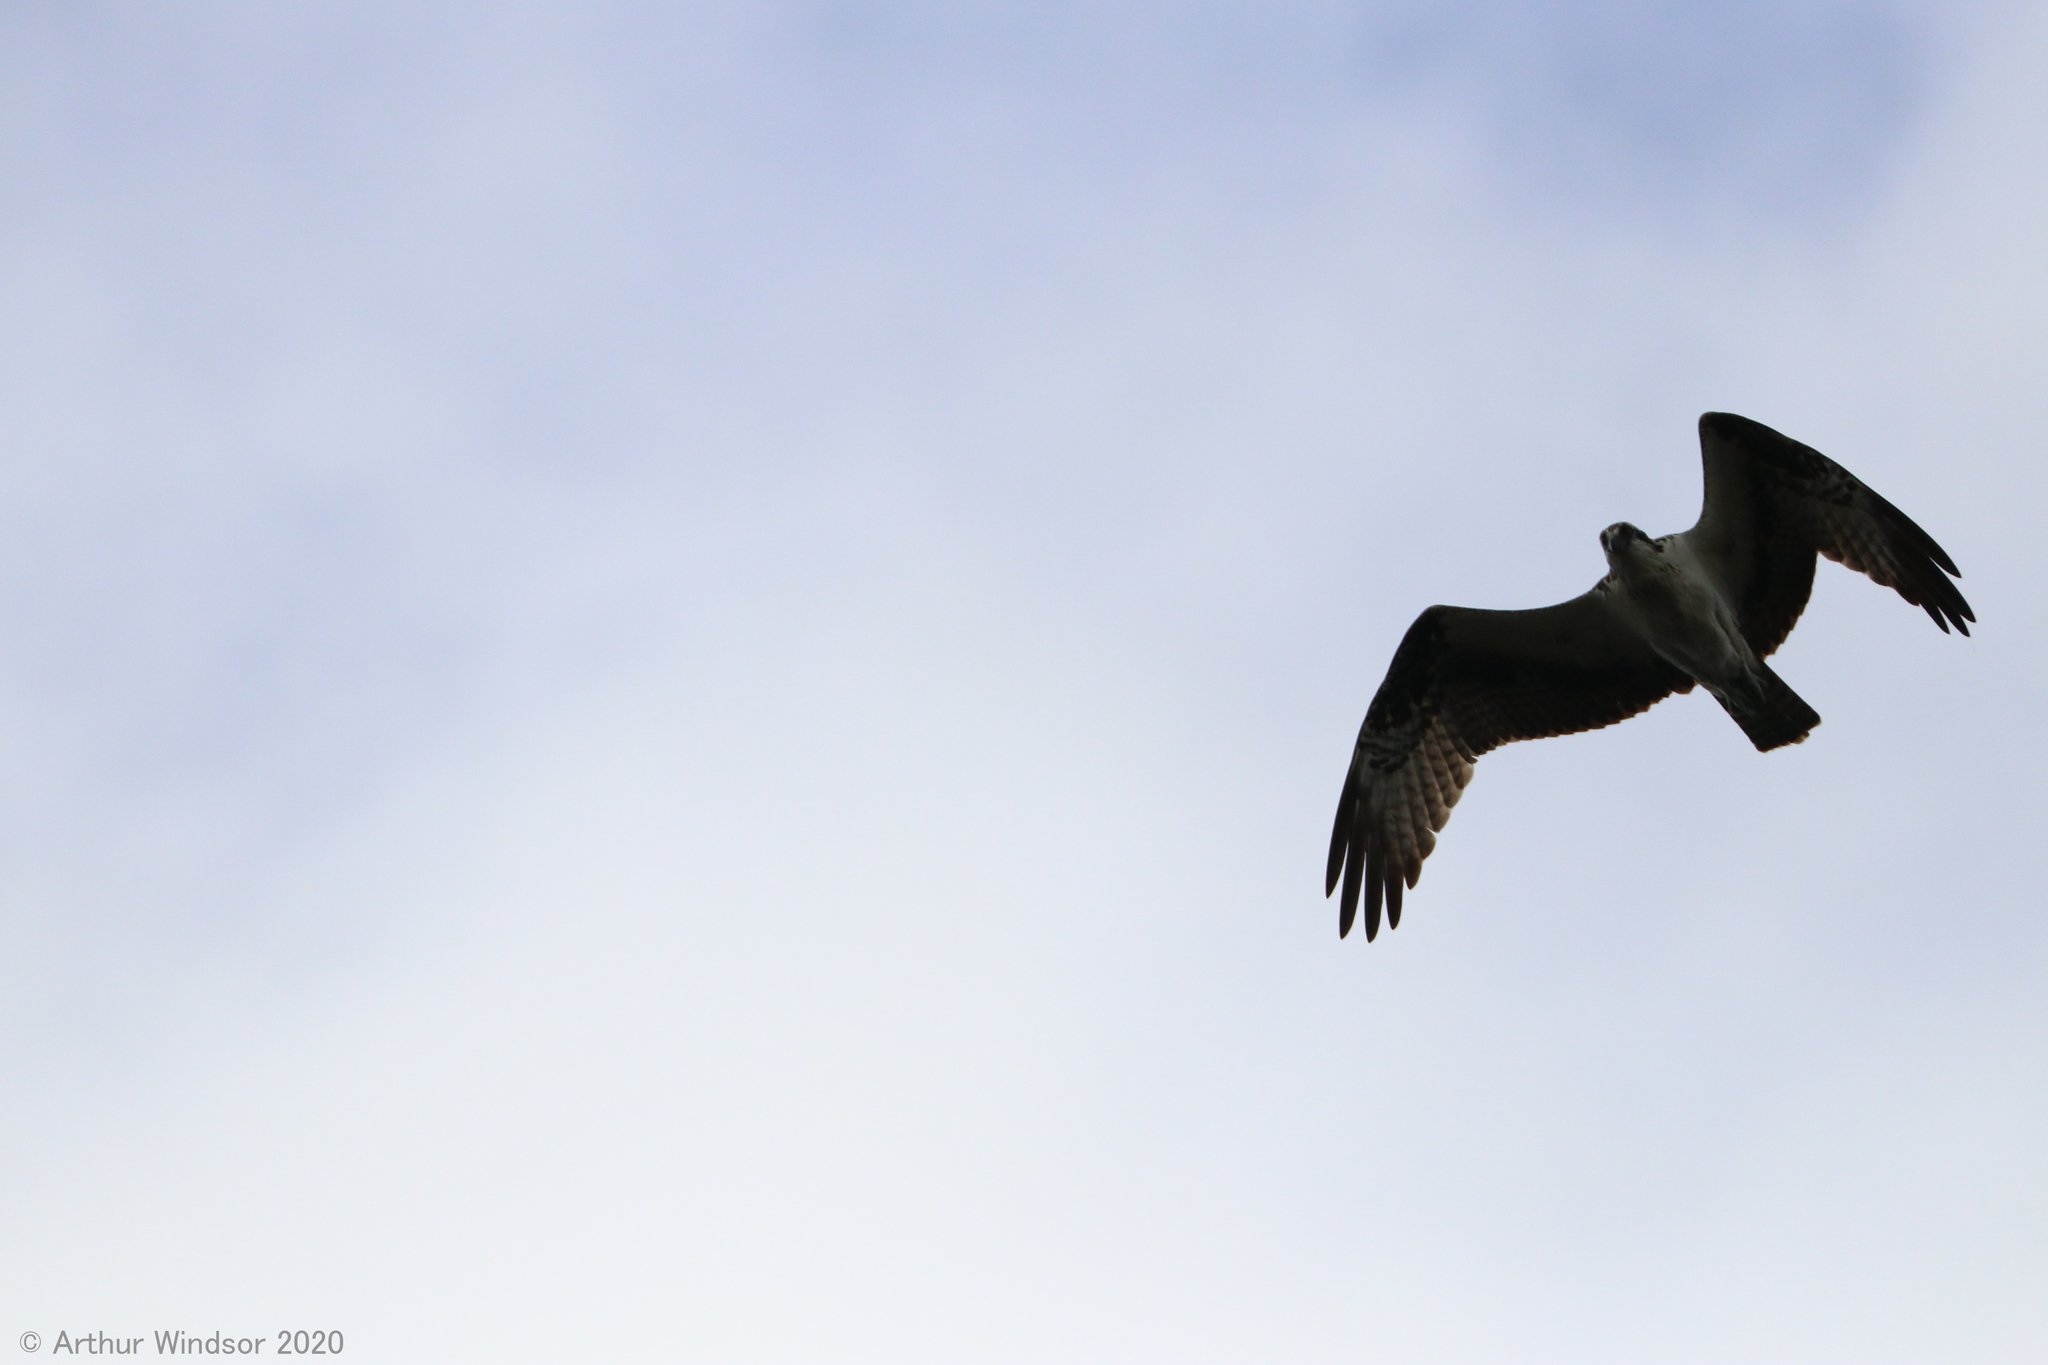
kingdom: Animalia
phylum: Chordata
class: Aves
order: Accipitriformes
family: Pandionidae
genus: Pandion
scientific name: Pandion haliaetus
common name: Osprey
